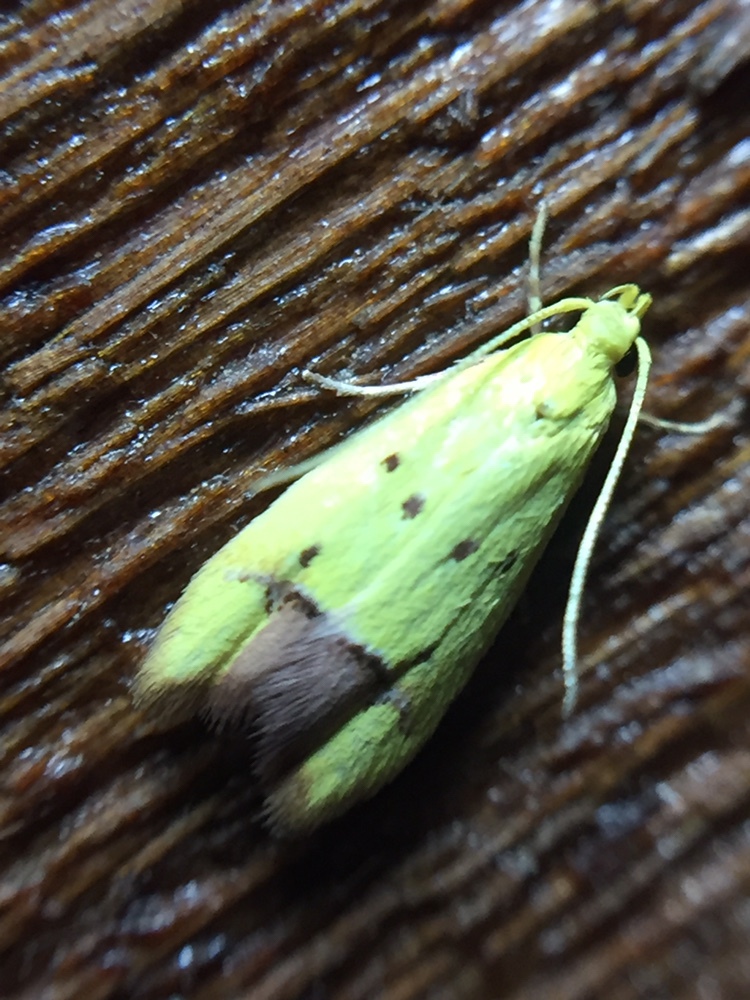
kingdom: Animalia
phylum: Arthropoda
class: Insecta
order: Lepidoptera
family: Oecophoridae
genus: Gymnobathra
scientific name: Gymnobathra flavidella
